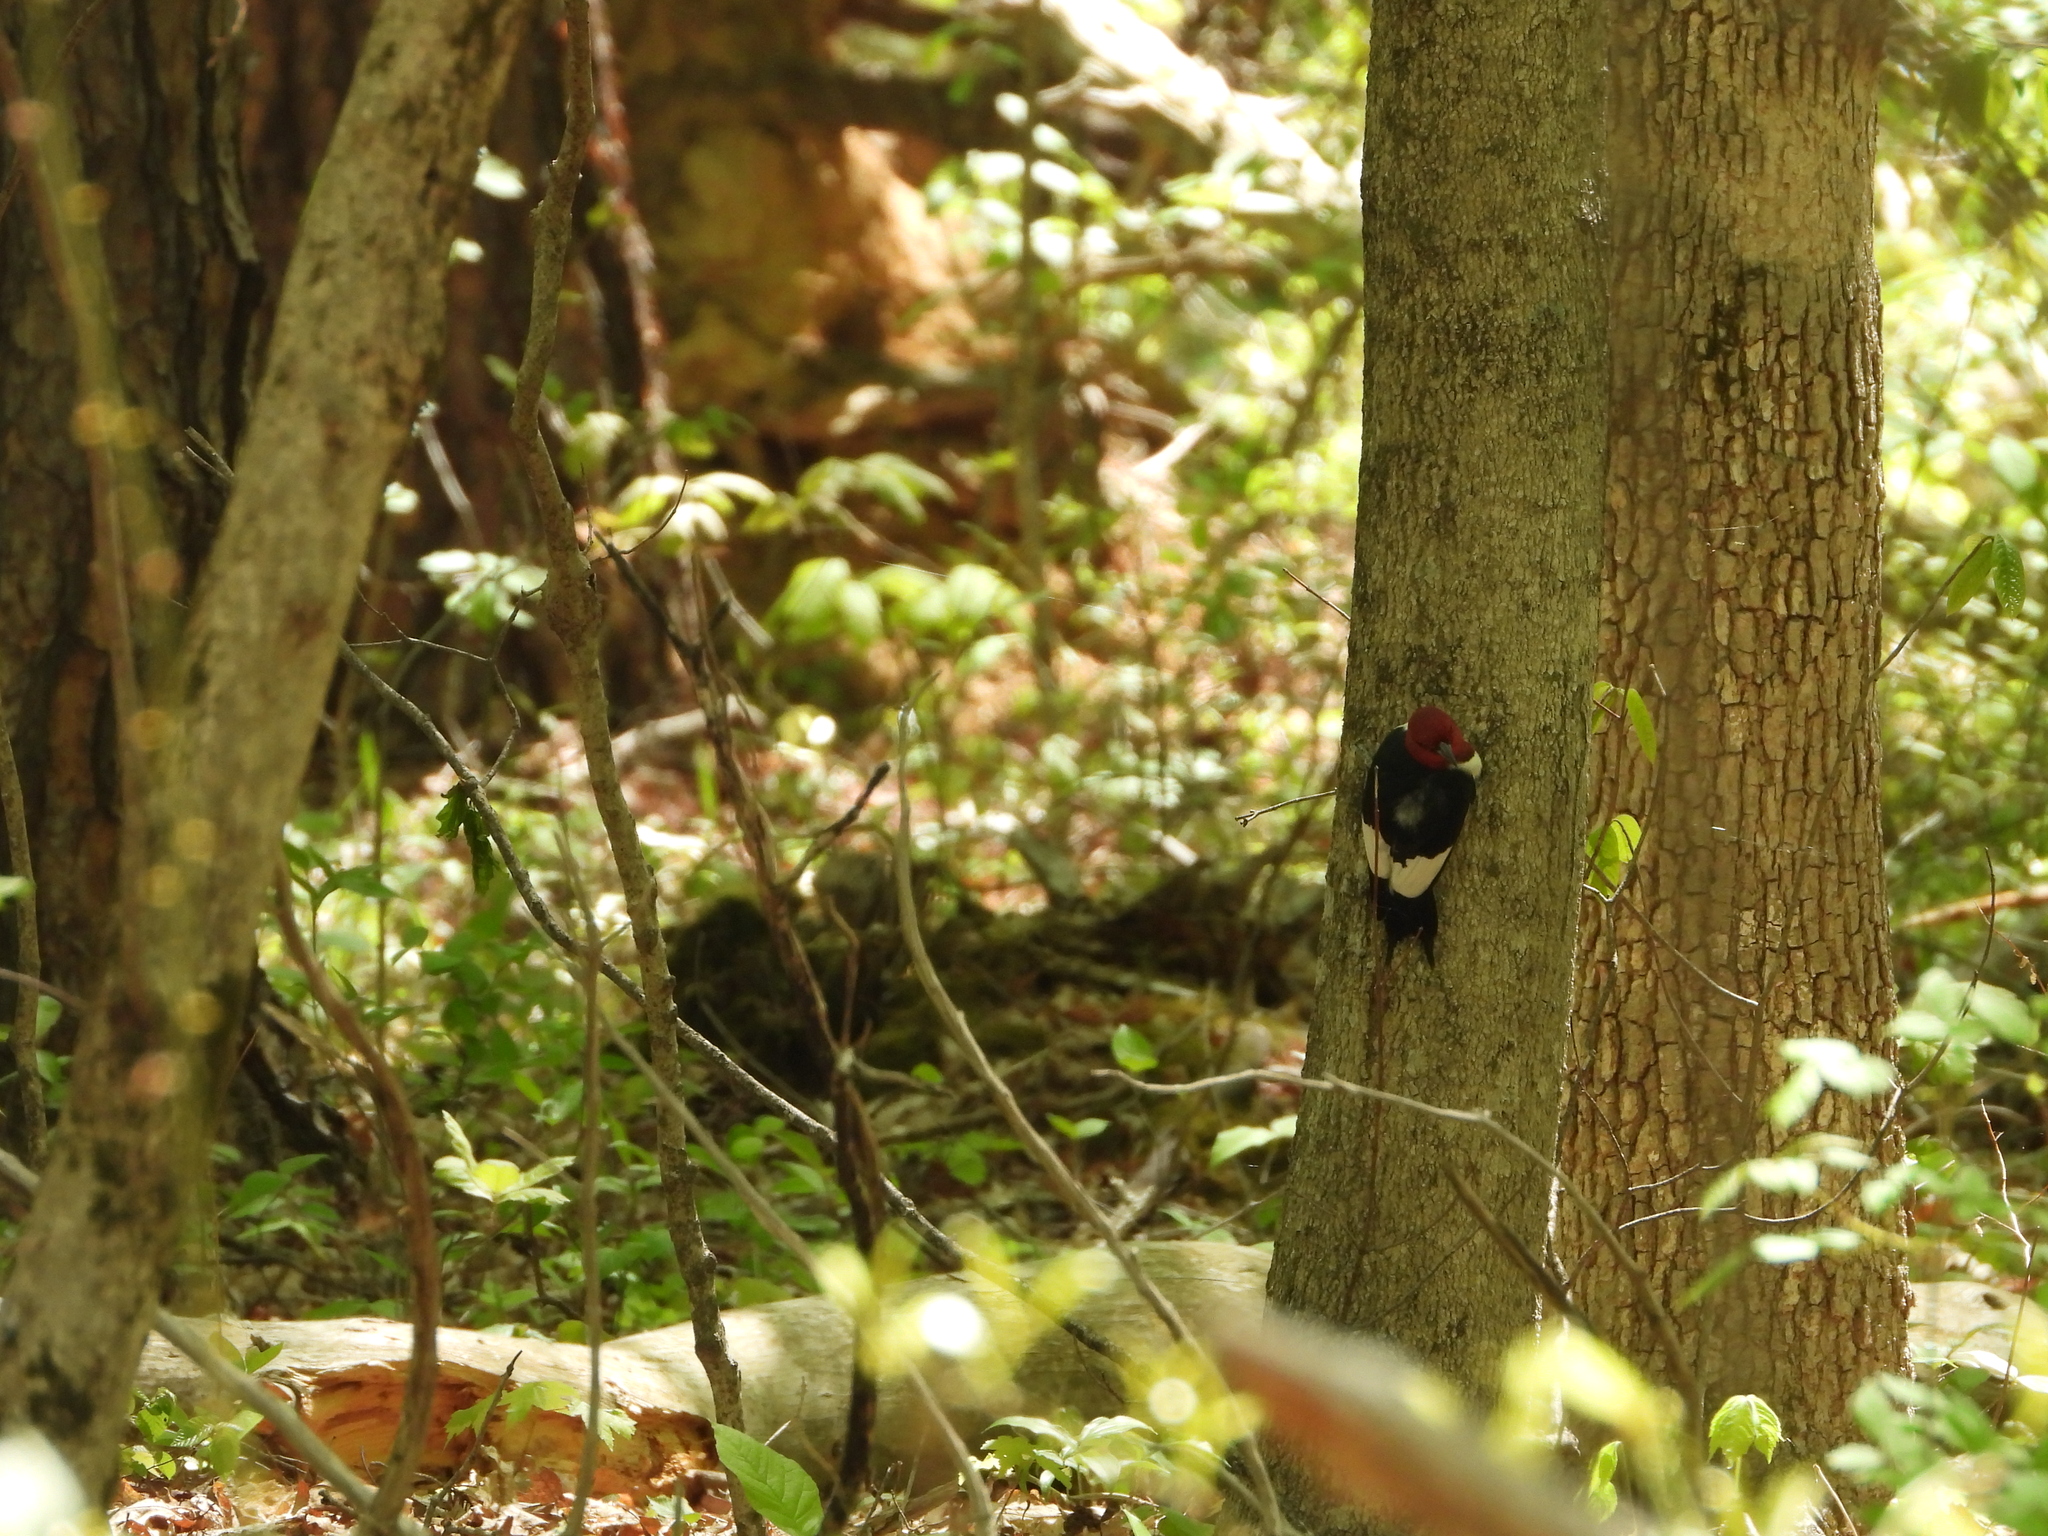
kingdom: Animalia
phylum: Chordata
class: Aves
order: Piciformes
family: Picidae
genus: Melanerpes
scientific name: Melanerpes erythrocephalus
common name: Red-headed woodpecker
